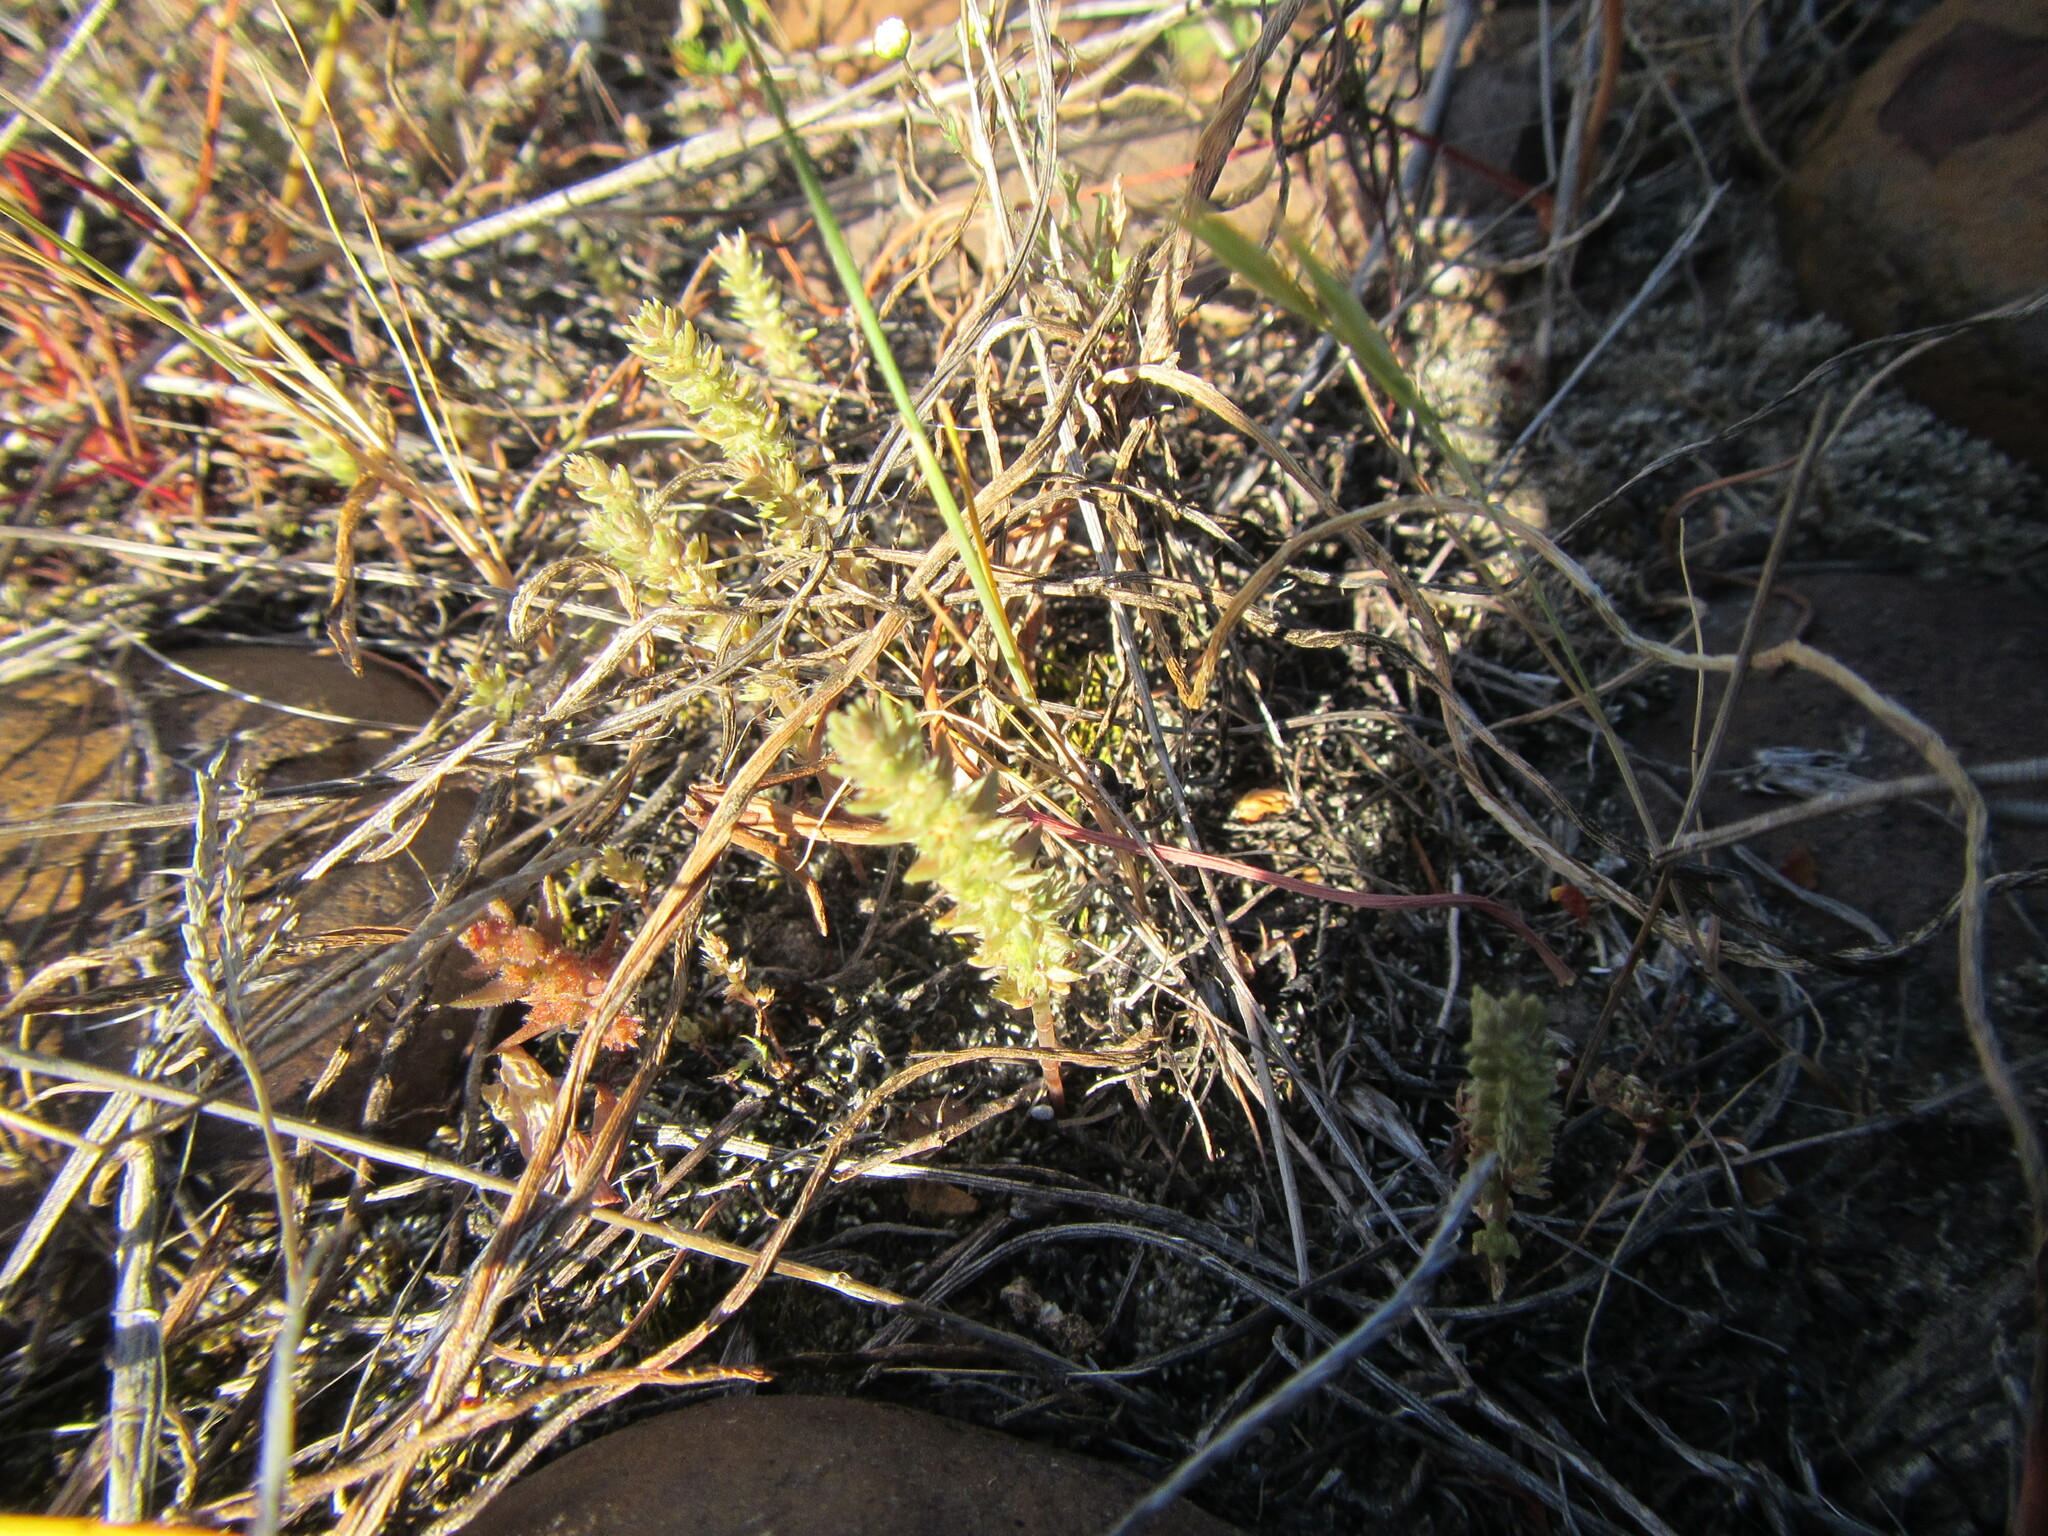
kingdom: Plantae
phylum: Tracheophyta
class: Magnoliopsida
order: Saxifragales
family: Crassulaceae
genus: Crassula
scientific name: Crassula campestris
